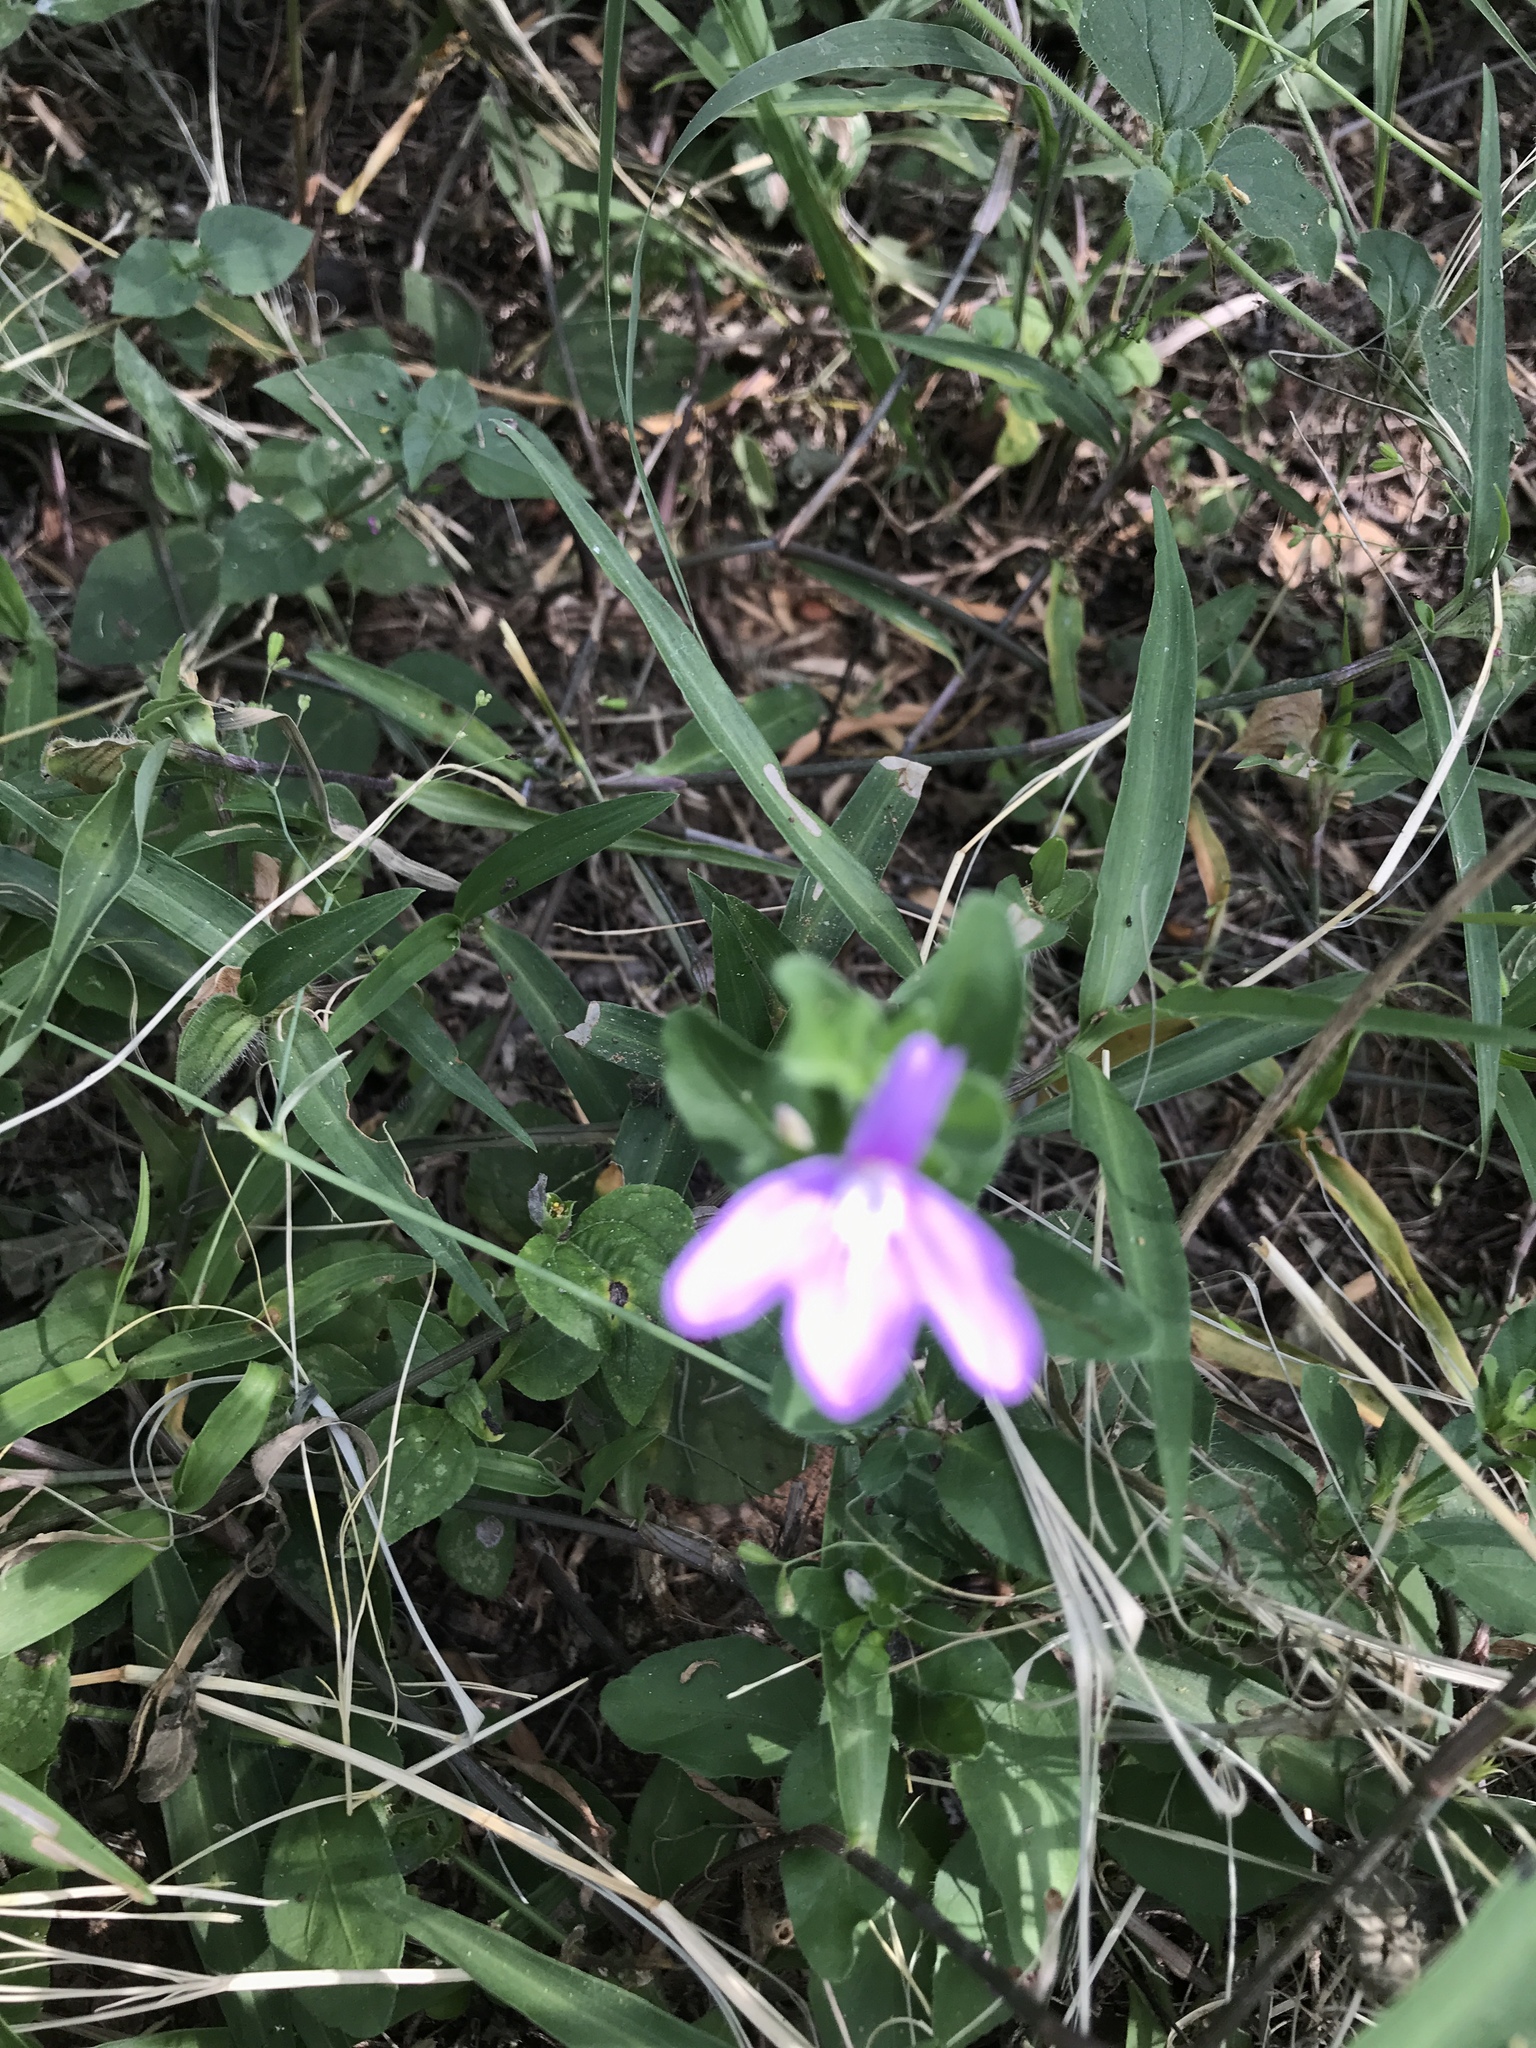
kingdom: Plantae
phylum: Tracheophyta
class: Magnoliopsida
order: Lamiales
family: Acanthaceae
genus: Justicia
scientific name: Justicia pilosella
